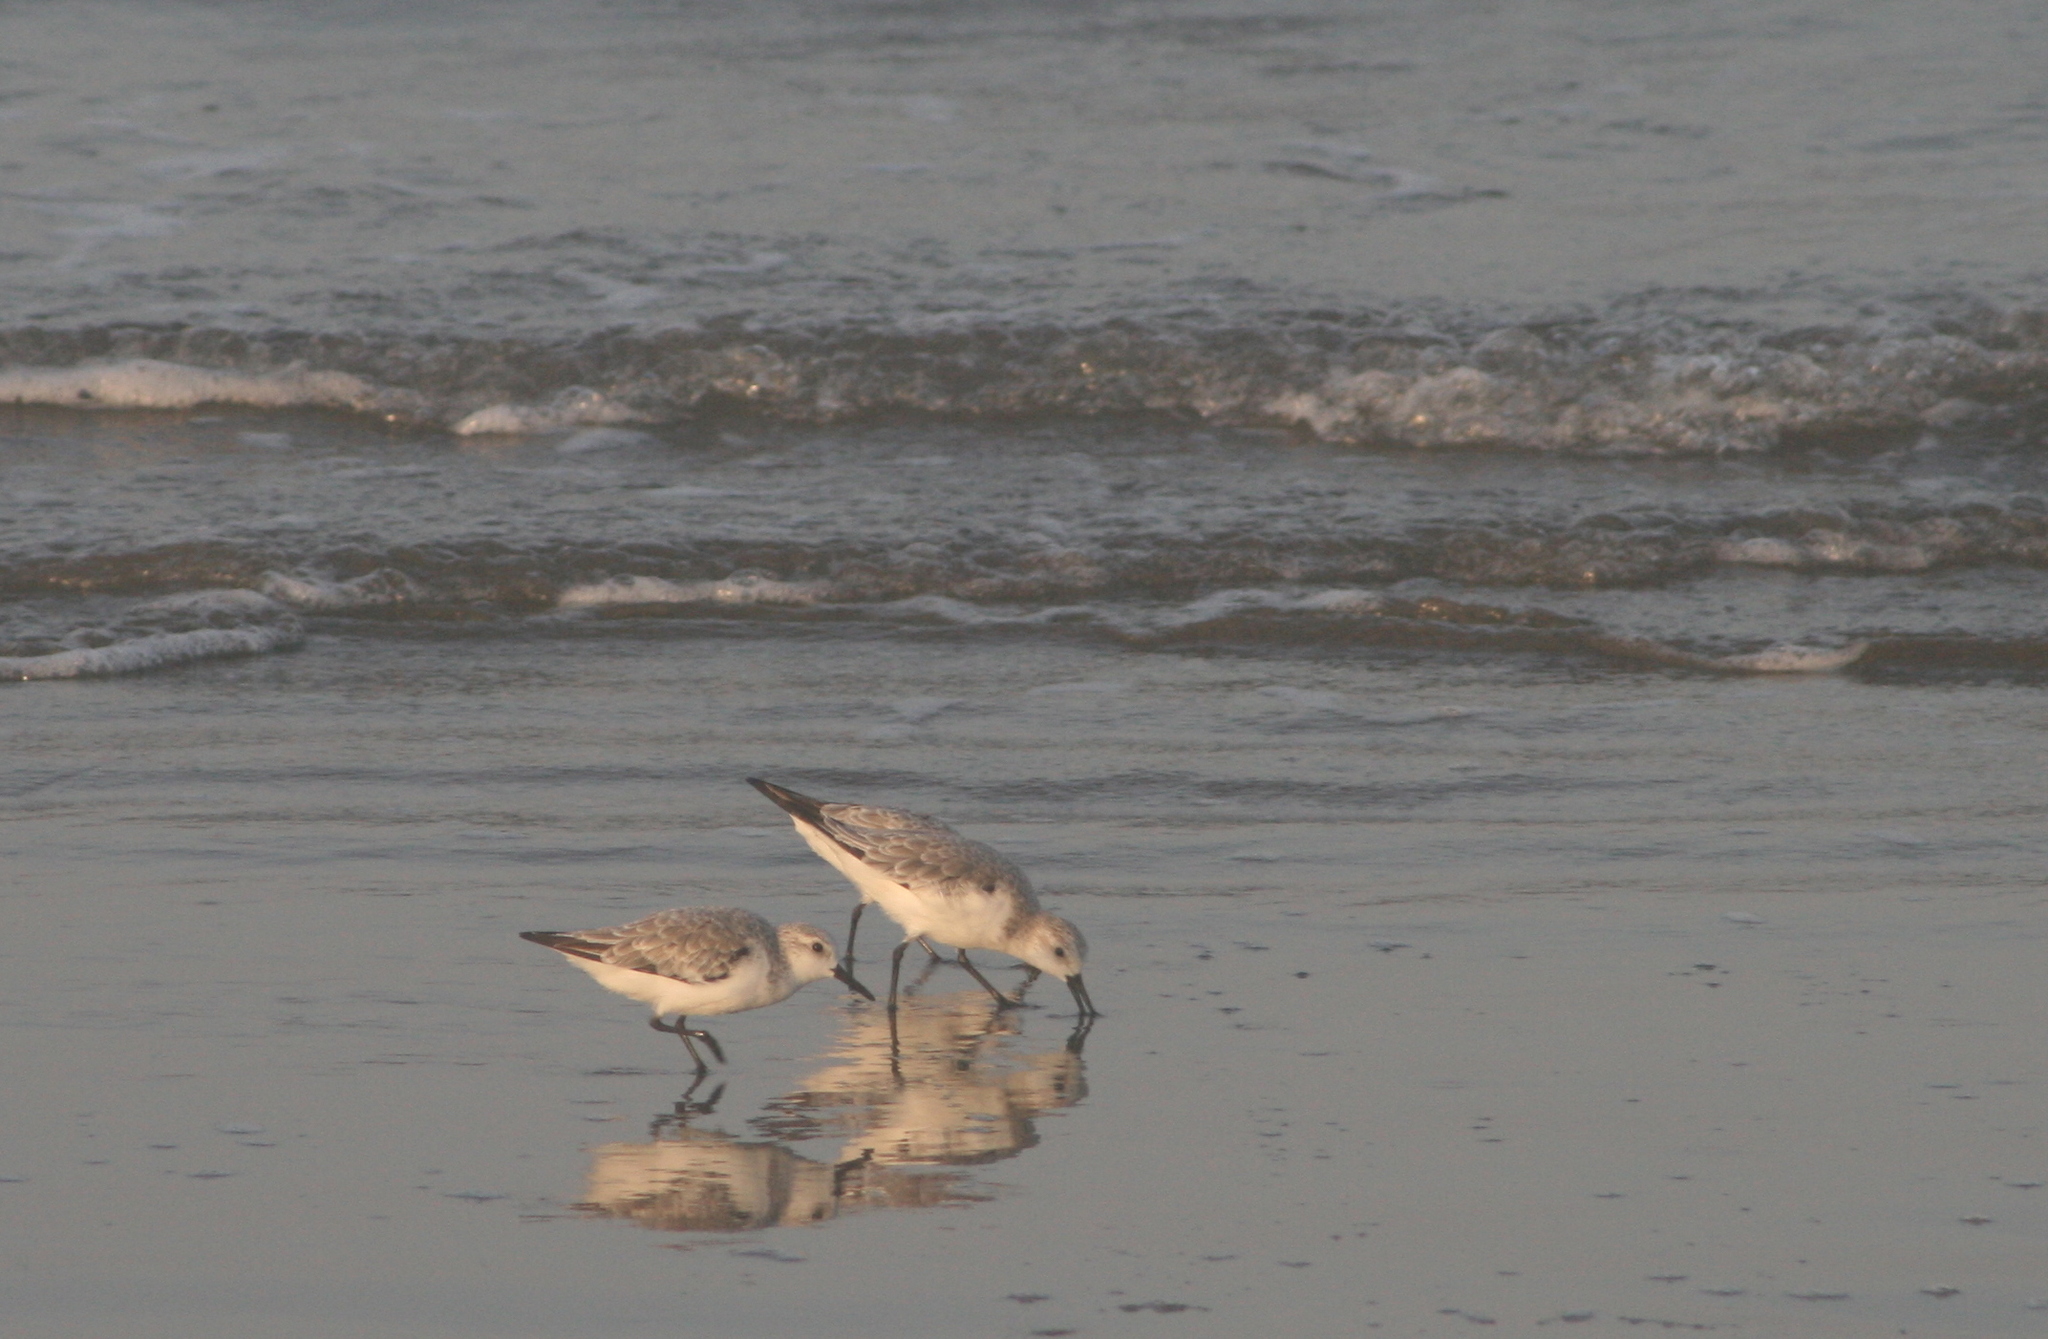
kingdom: Animalia
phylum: Chordata
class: Aves
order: Charadriiformes
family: Scolopacidae
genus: Calidris
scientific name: Calidris alba
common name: Sanderling
